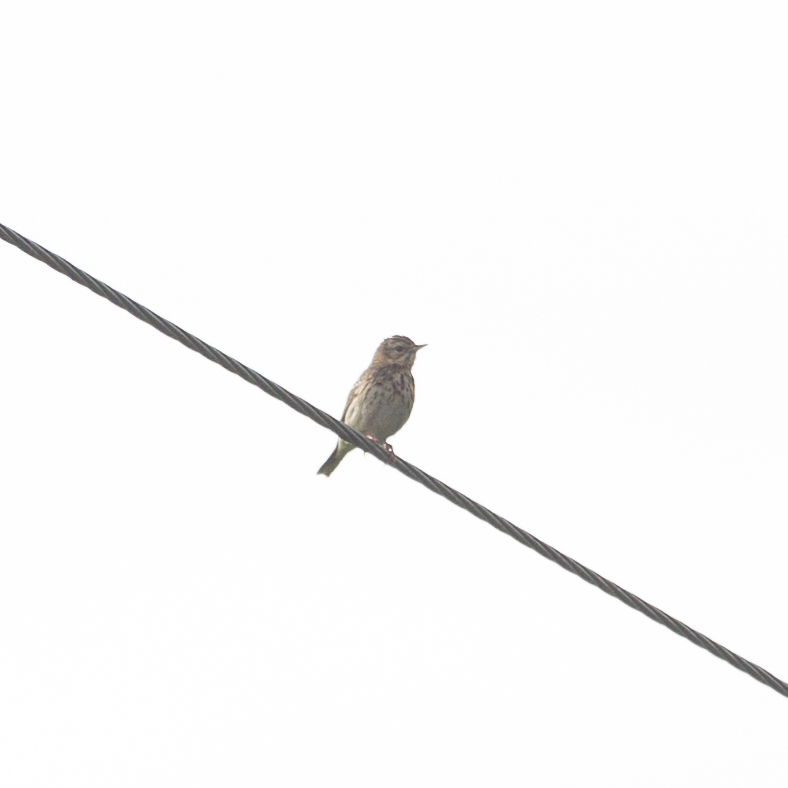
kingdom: Animalia
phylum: Chordata
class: Aves
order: Passeriformes
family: Motacillidae
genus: Anthus
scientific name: Anthus pratensis
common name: Meadow pipit
